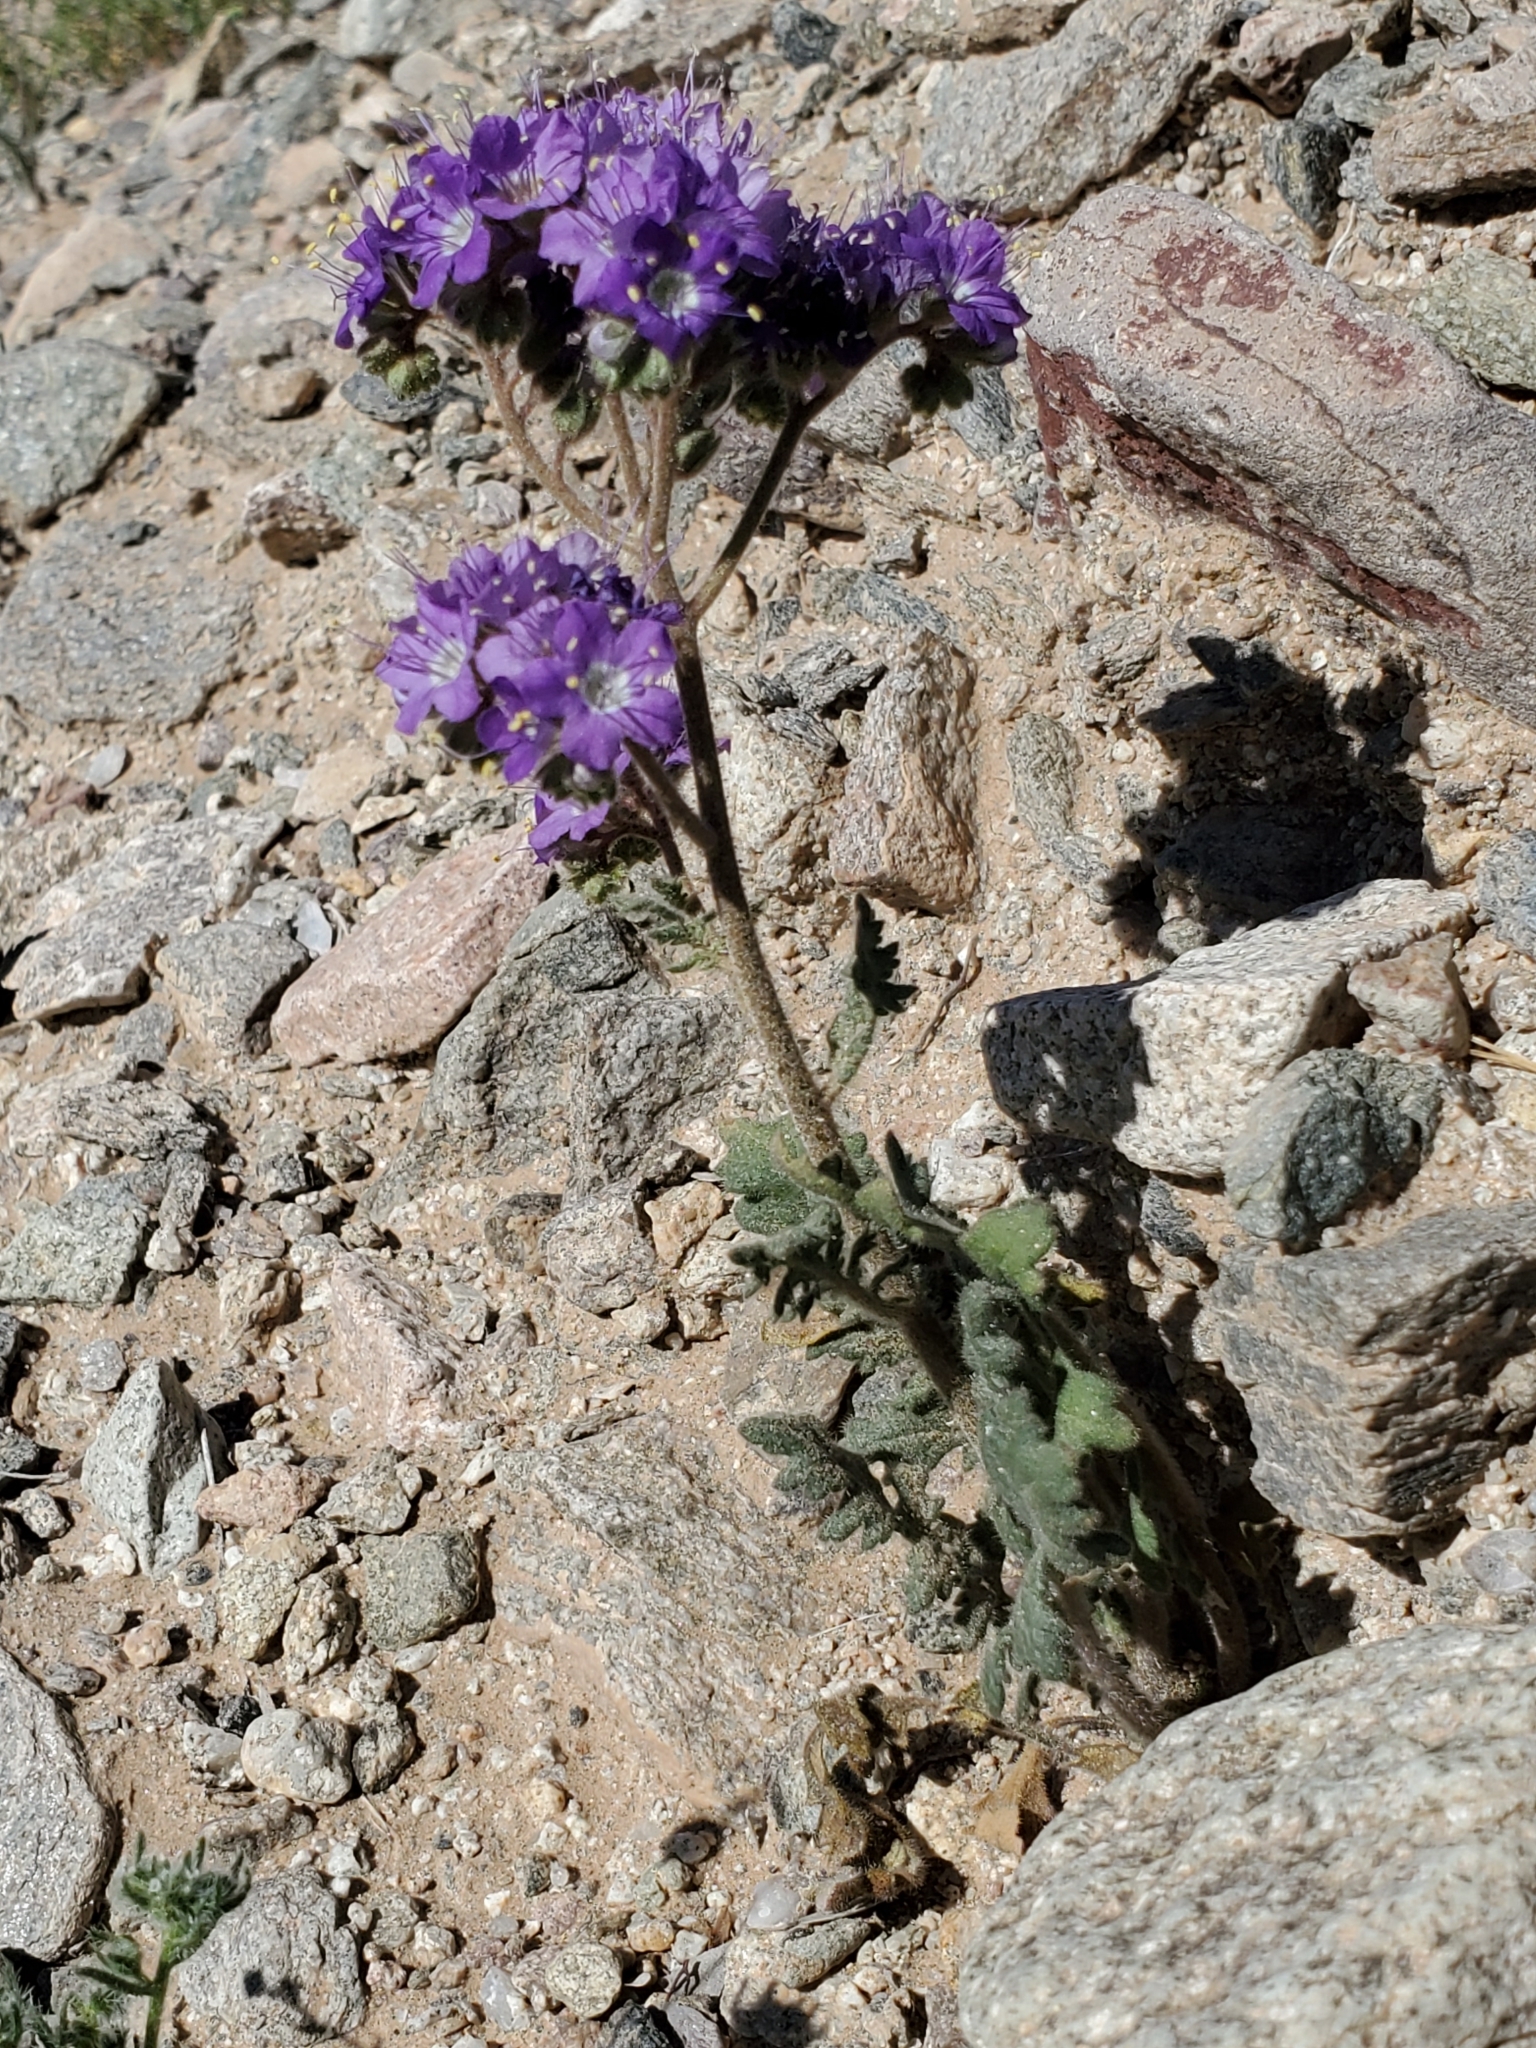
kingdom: Plantae
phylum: Tracheophyta
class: Magnoliopsida
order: Boraginales
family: Hydrophyllaceae
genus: Phacelia
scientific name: Phacelia crenulata
